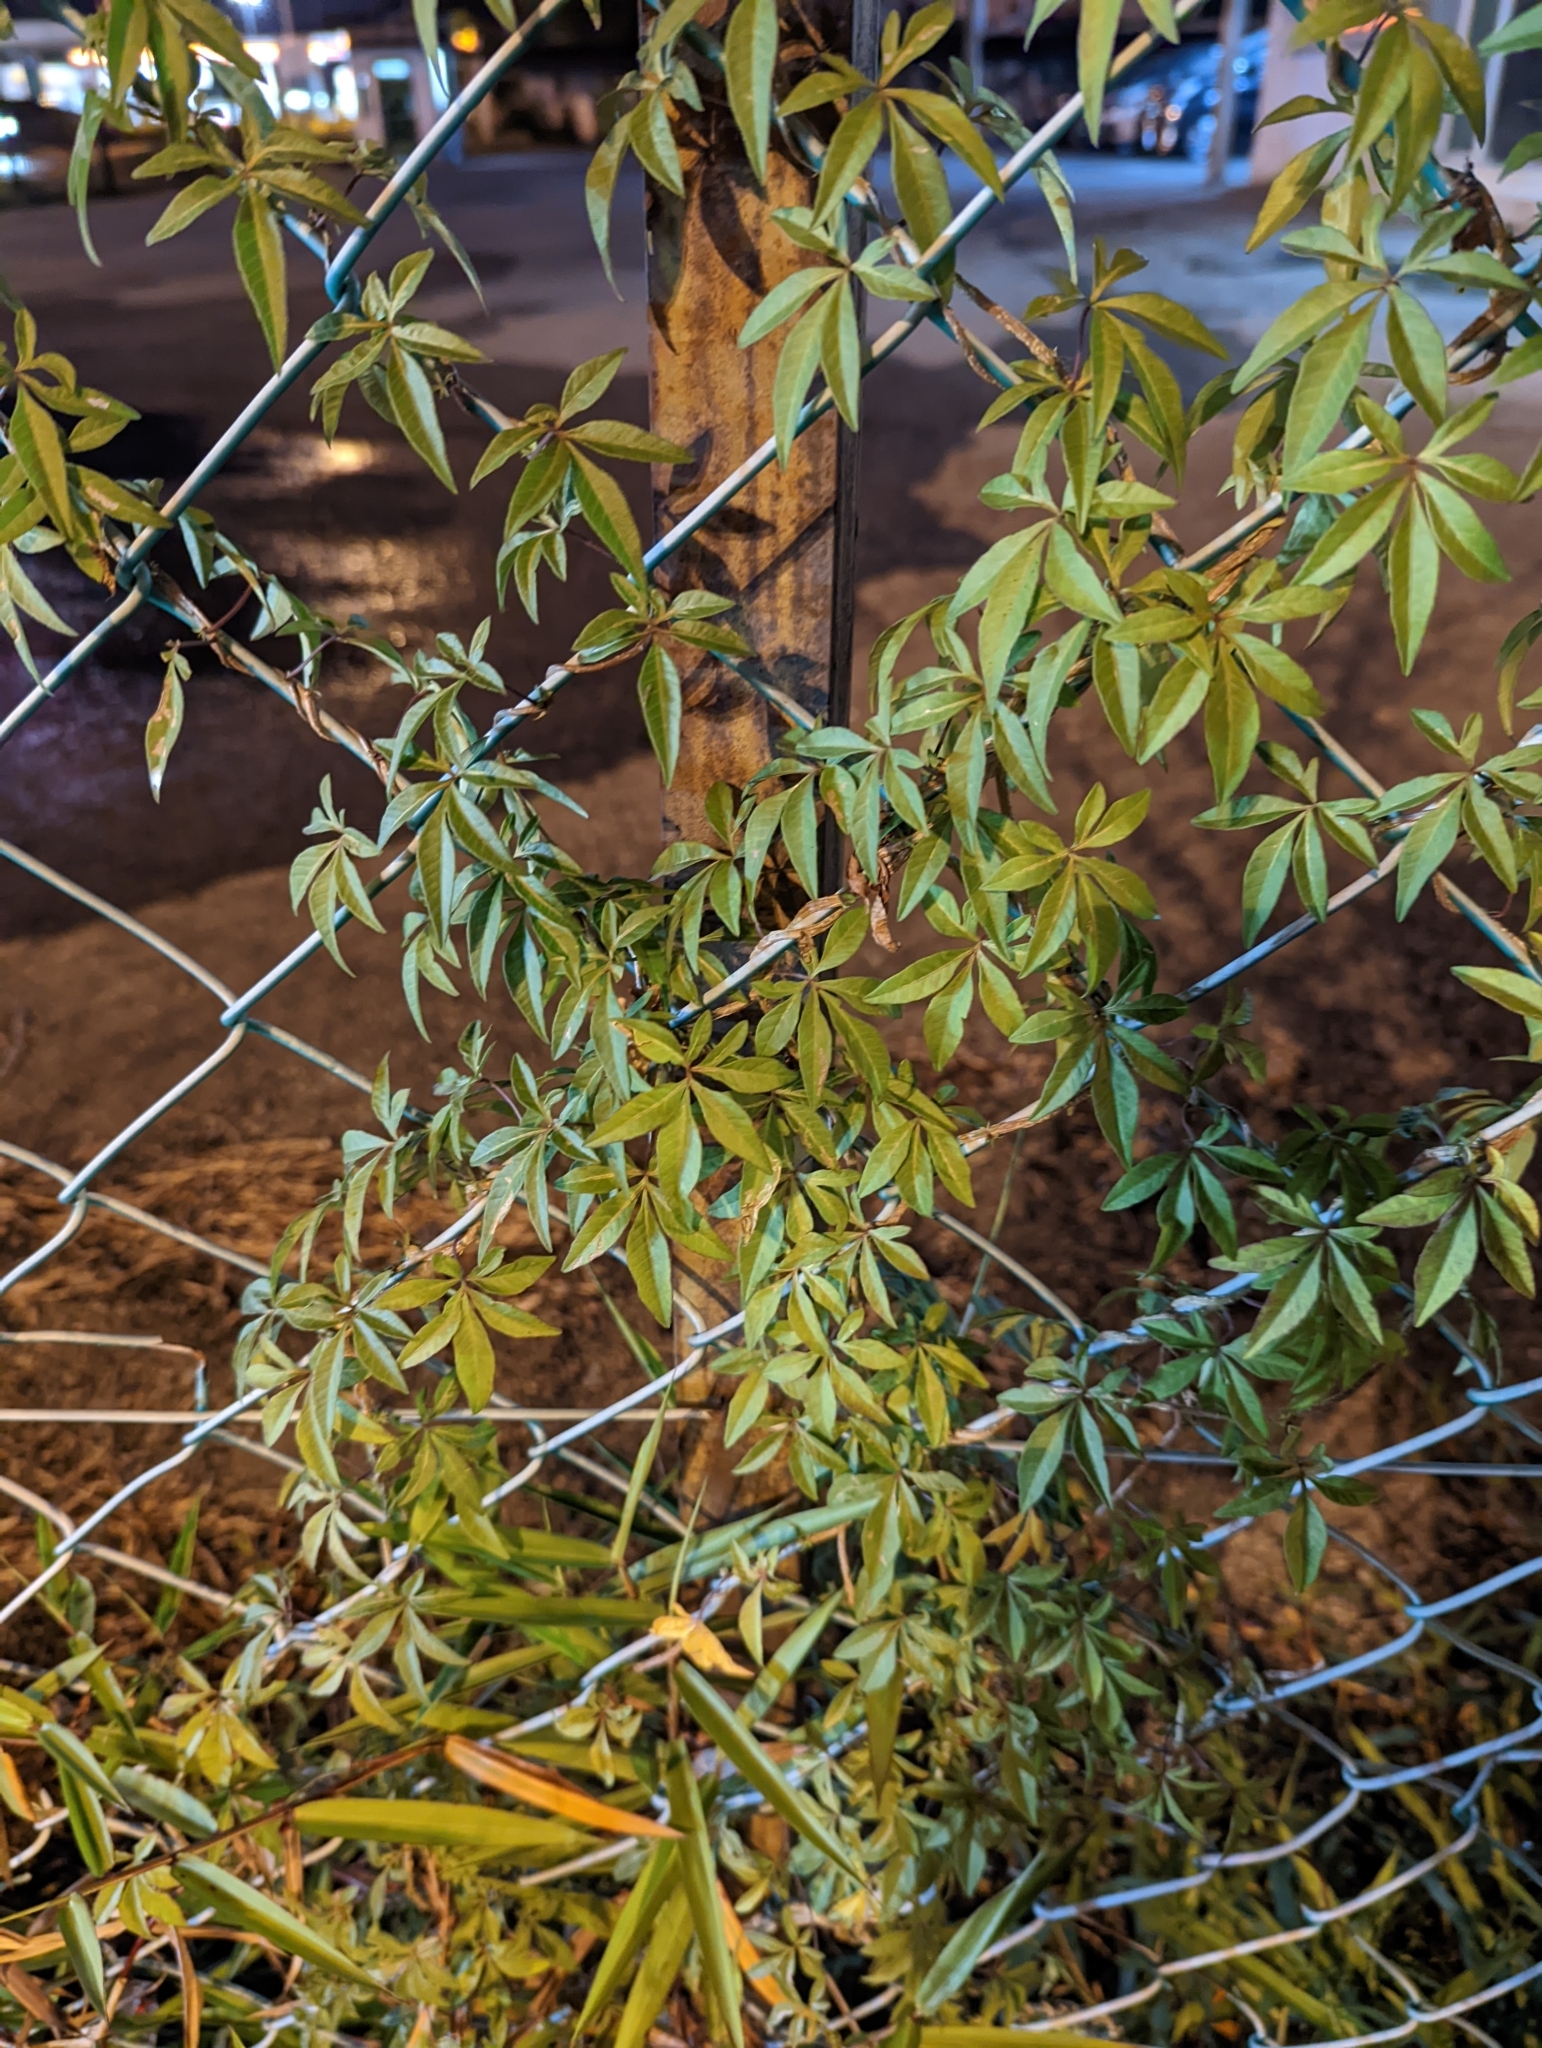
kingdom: Plantae
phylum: Tracheophyta
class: Magnoliopsida
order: Solanales
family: Convolvulaceae
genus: Ipomoea
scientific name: Ipomoea cairica
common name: Mile a minute vine
